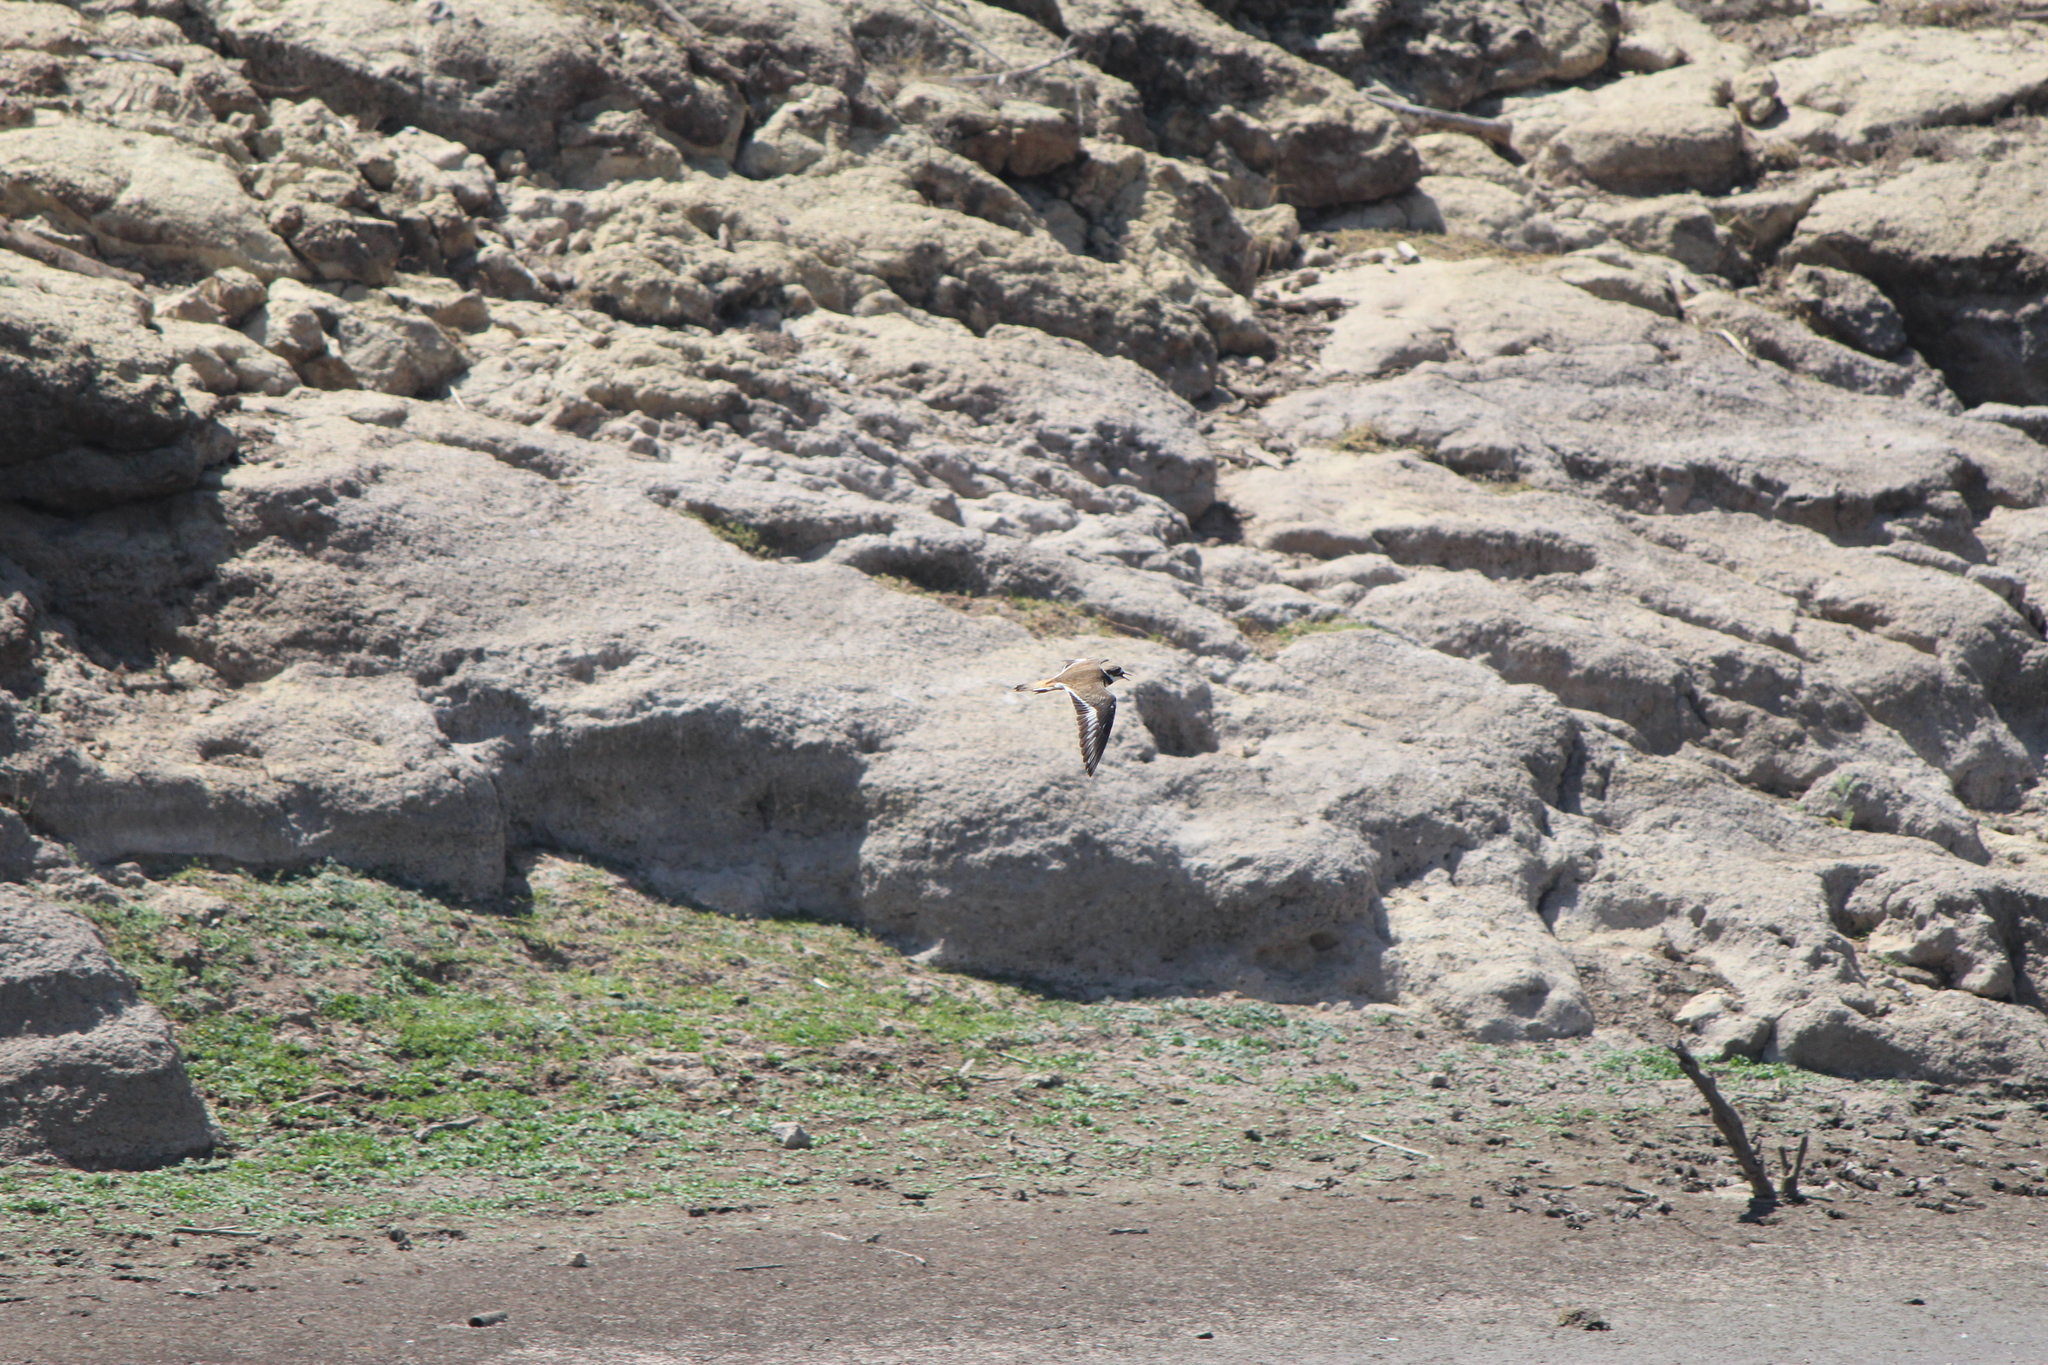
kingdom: Animalia
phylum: Chordata
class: Aves
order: Charadriiformes
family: Charadriidae
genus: Charadrius
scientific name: Charadrius vociferus
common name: Killdeer
